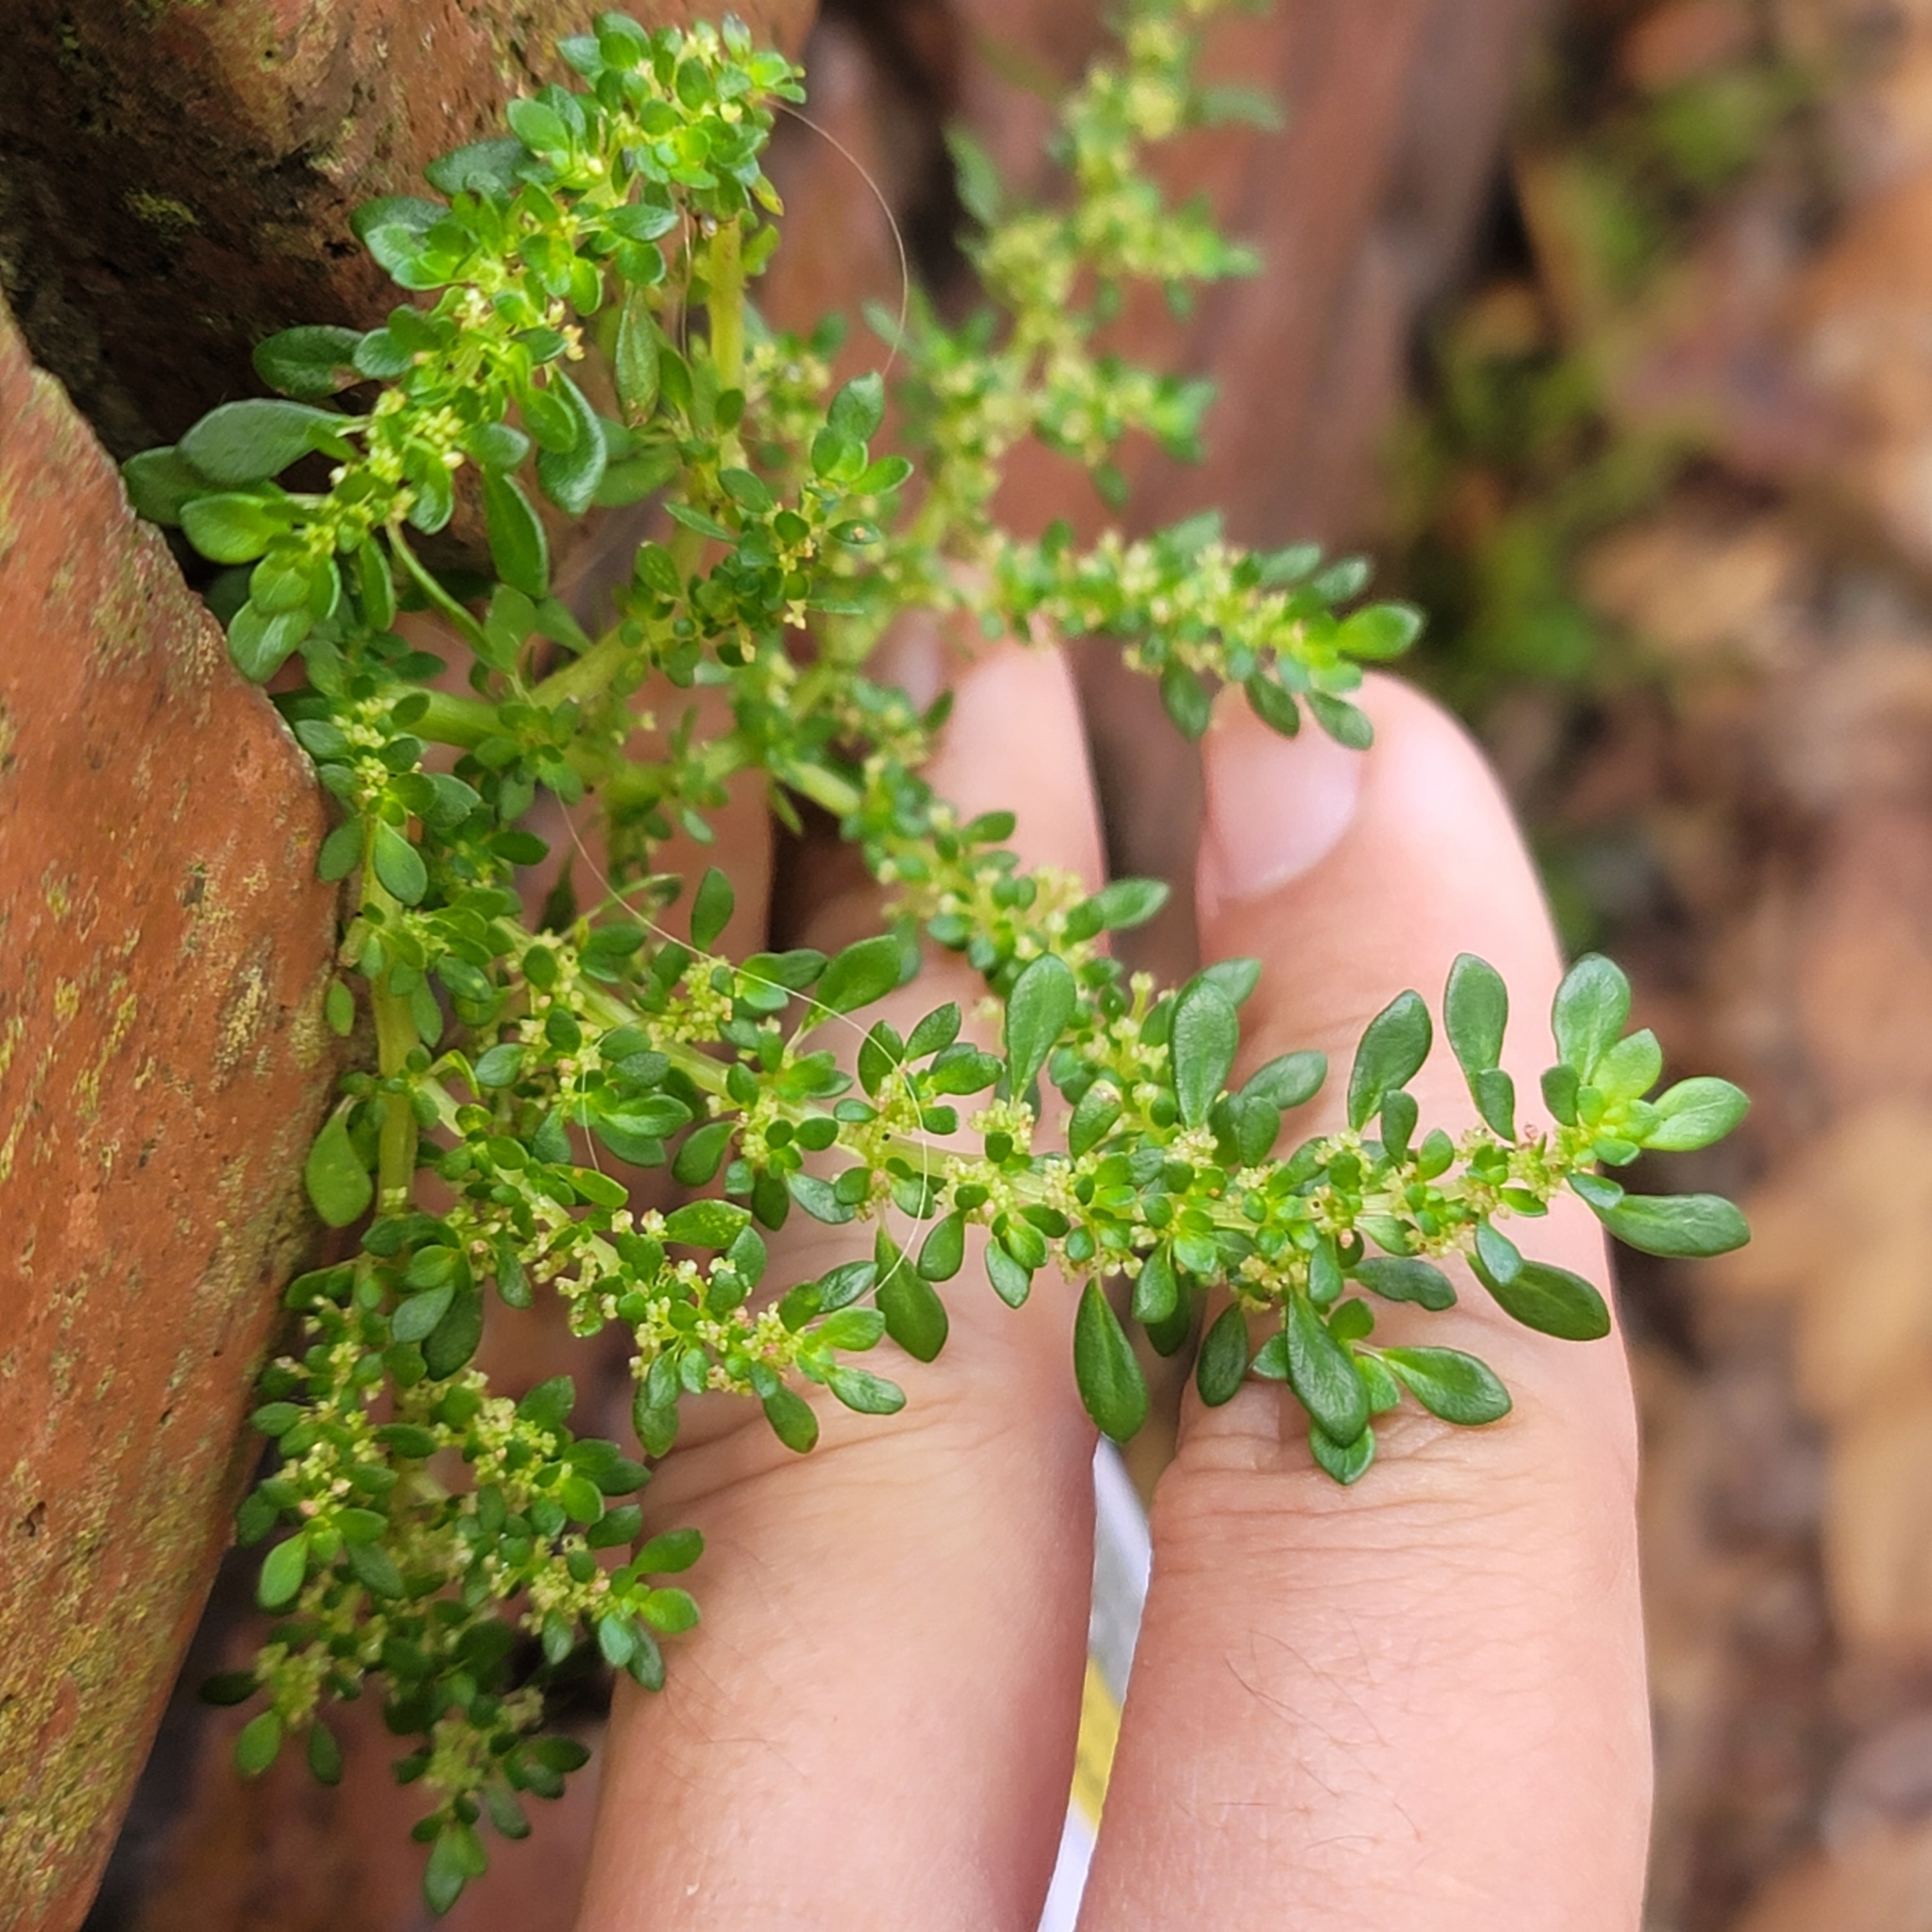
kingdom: Plantae
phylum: Tracheophyta
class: Magnoliopsida
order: Rosales
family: Urticaceae
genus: Pilea
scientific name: Pilea microphylla
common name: Artillery-plant
